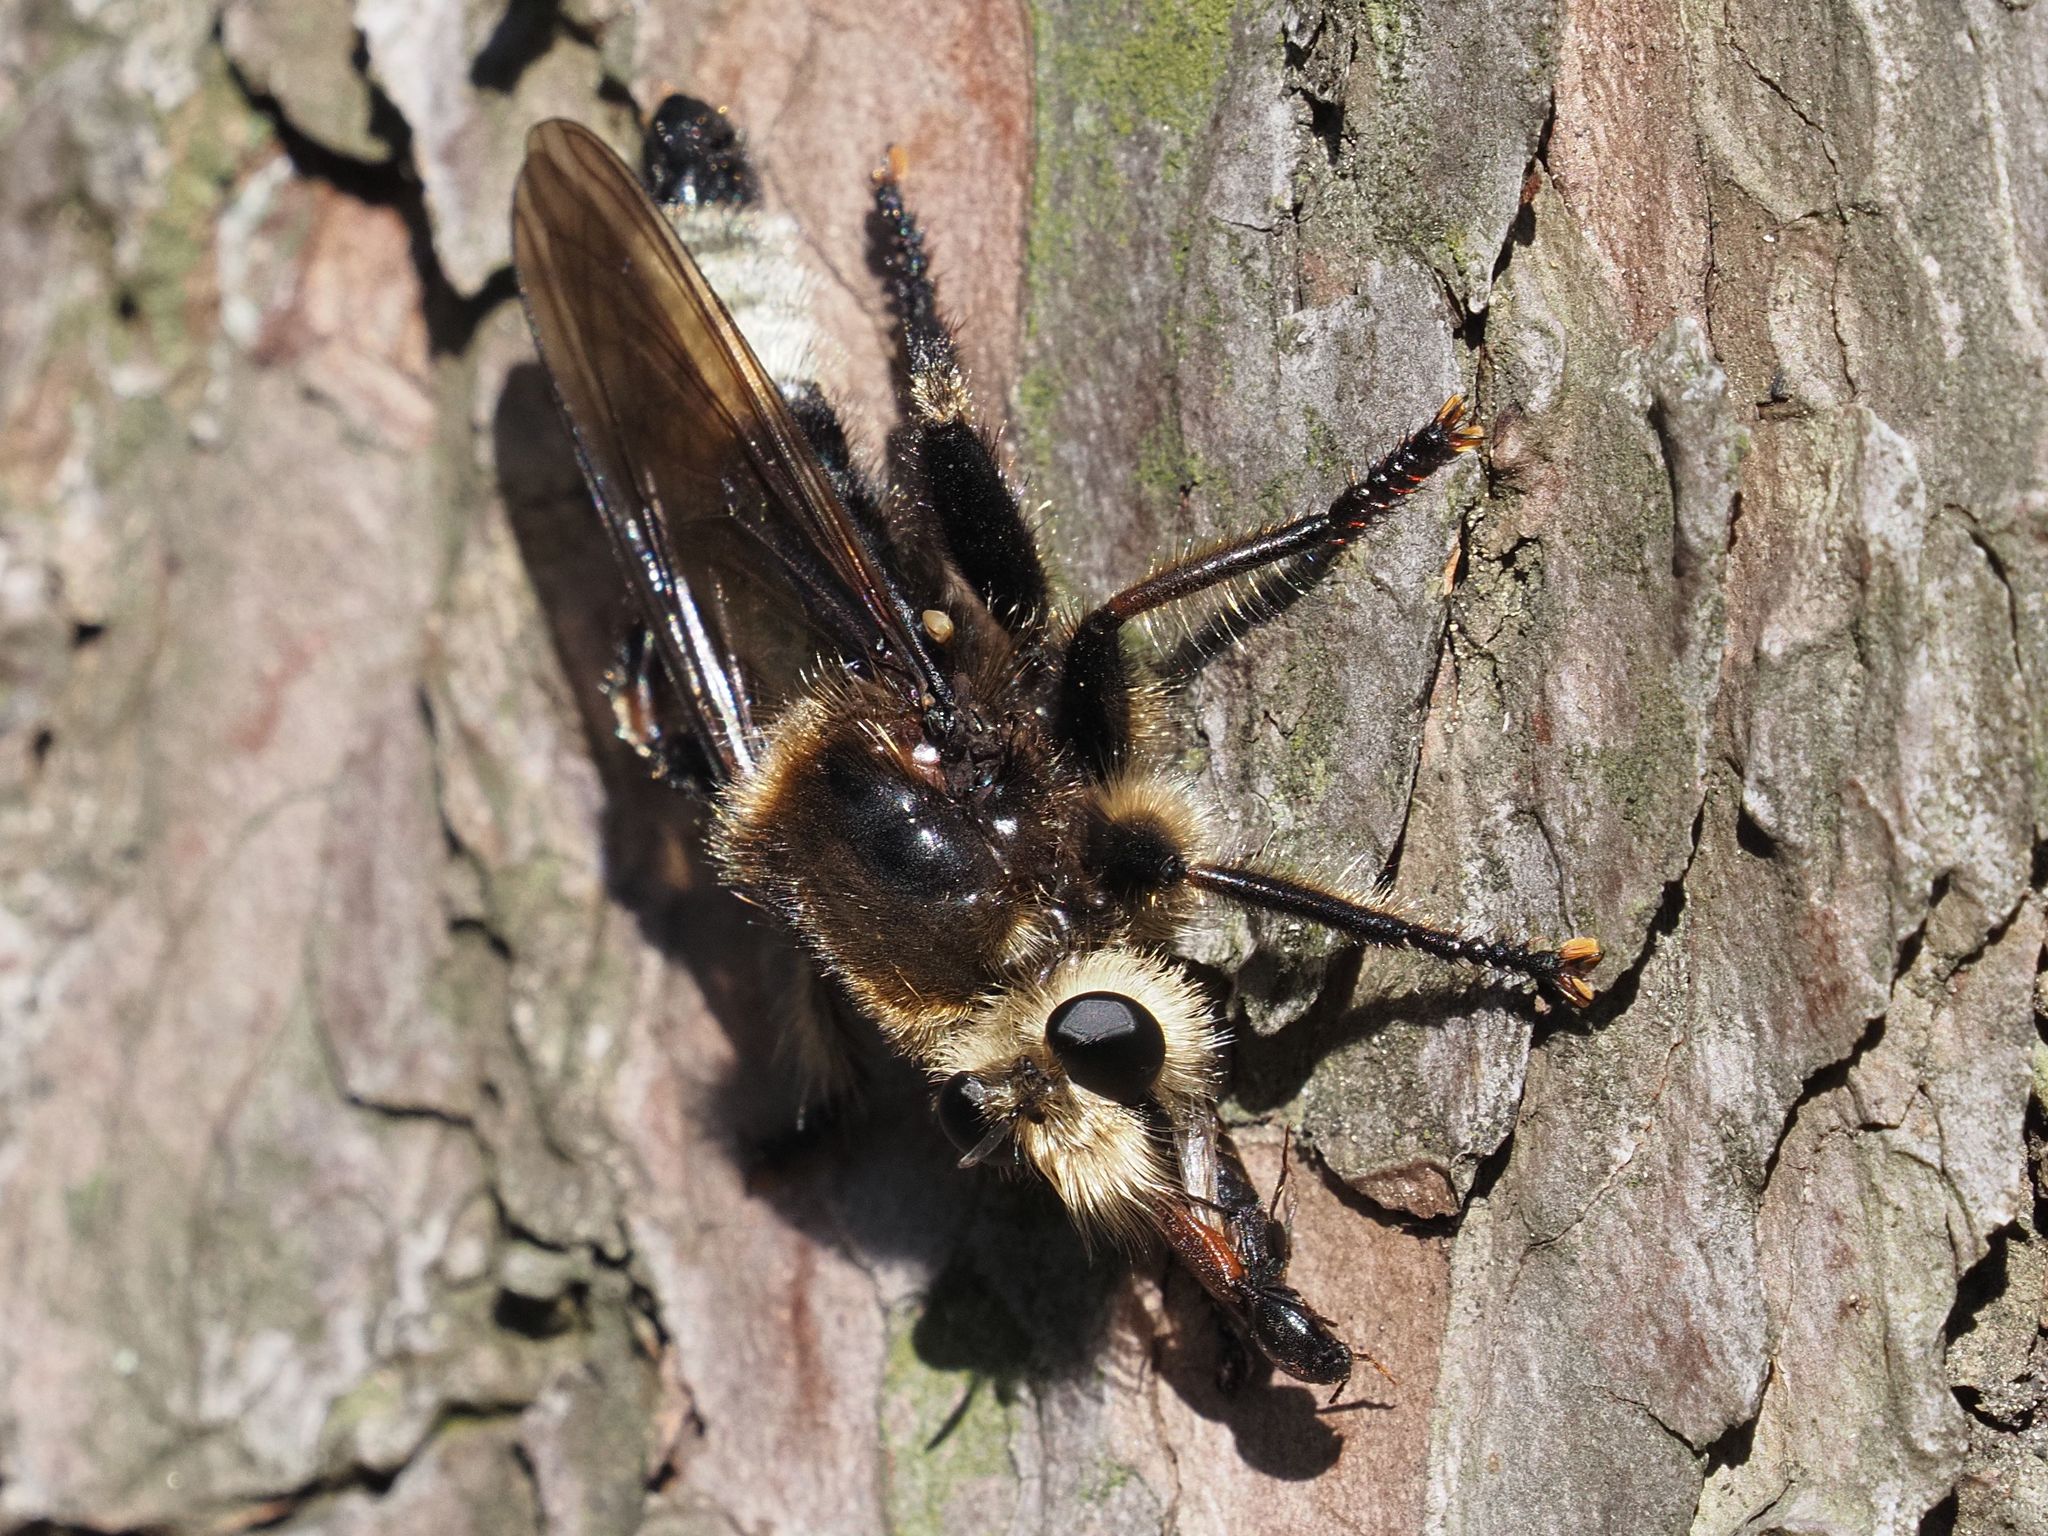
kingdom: Animalia
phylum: Arthropoda
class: Insecta
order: Diptera
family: Asilidae
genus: Laphria
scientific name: Laphria gibbosa
